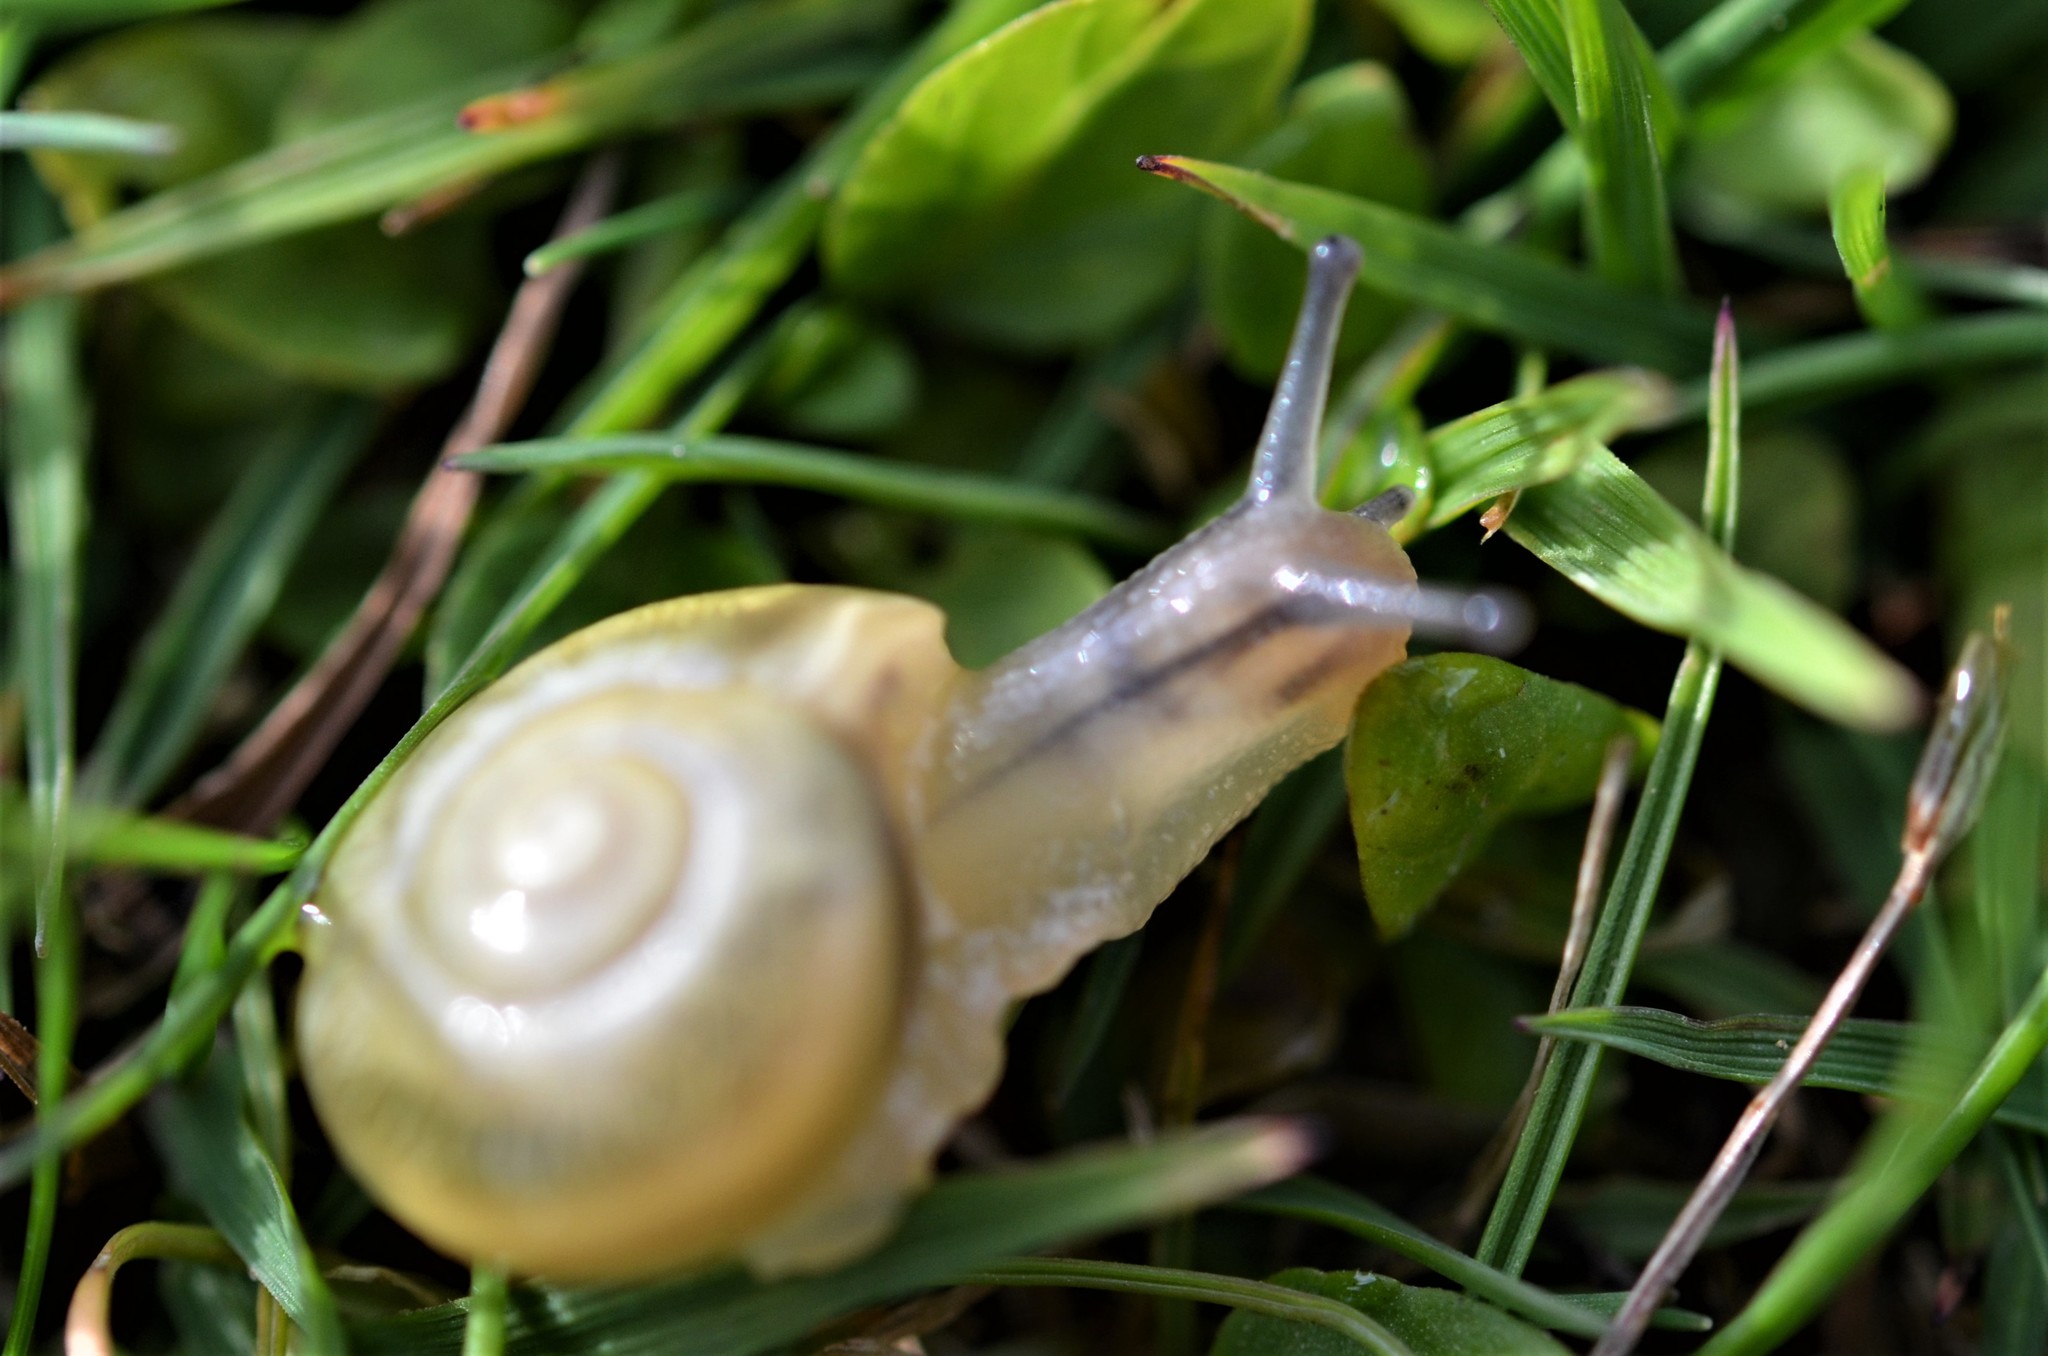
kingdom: Animalia
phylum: Mollusca
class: Gastropoda
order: Stylommatophora
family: Helicidae
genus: Cepaea
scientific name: Cepaea
